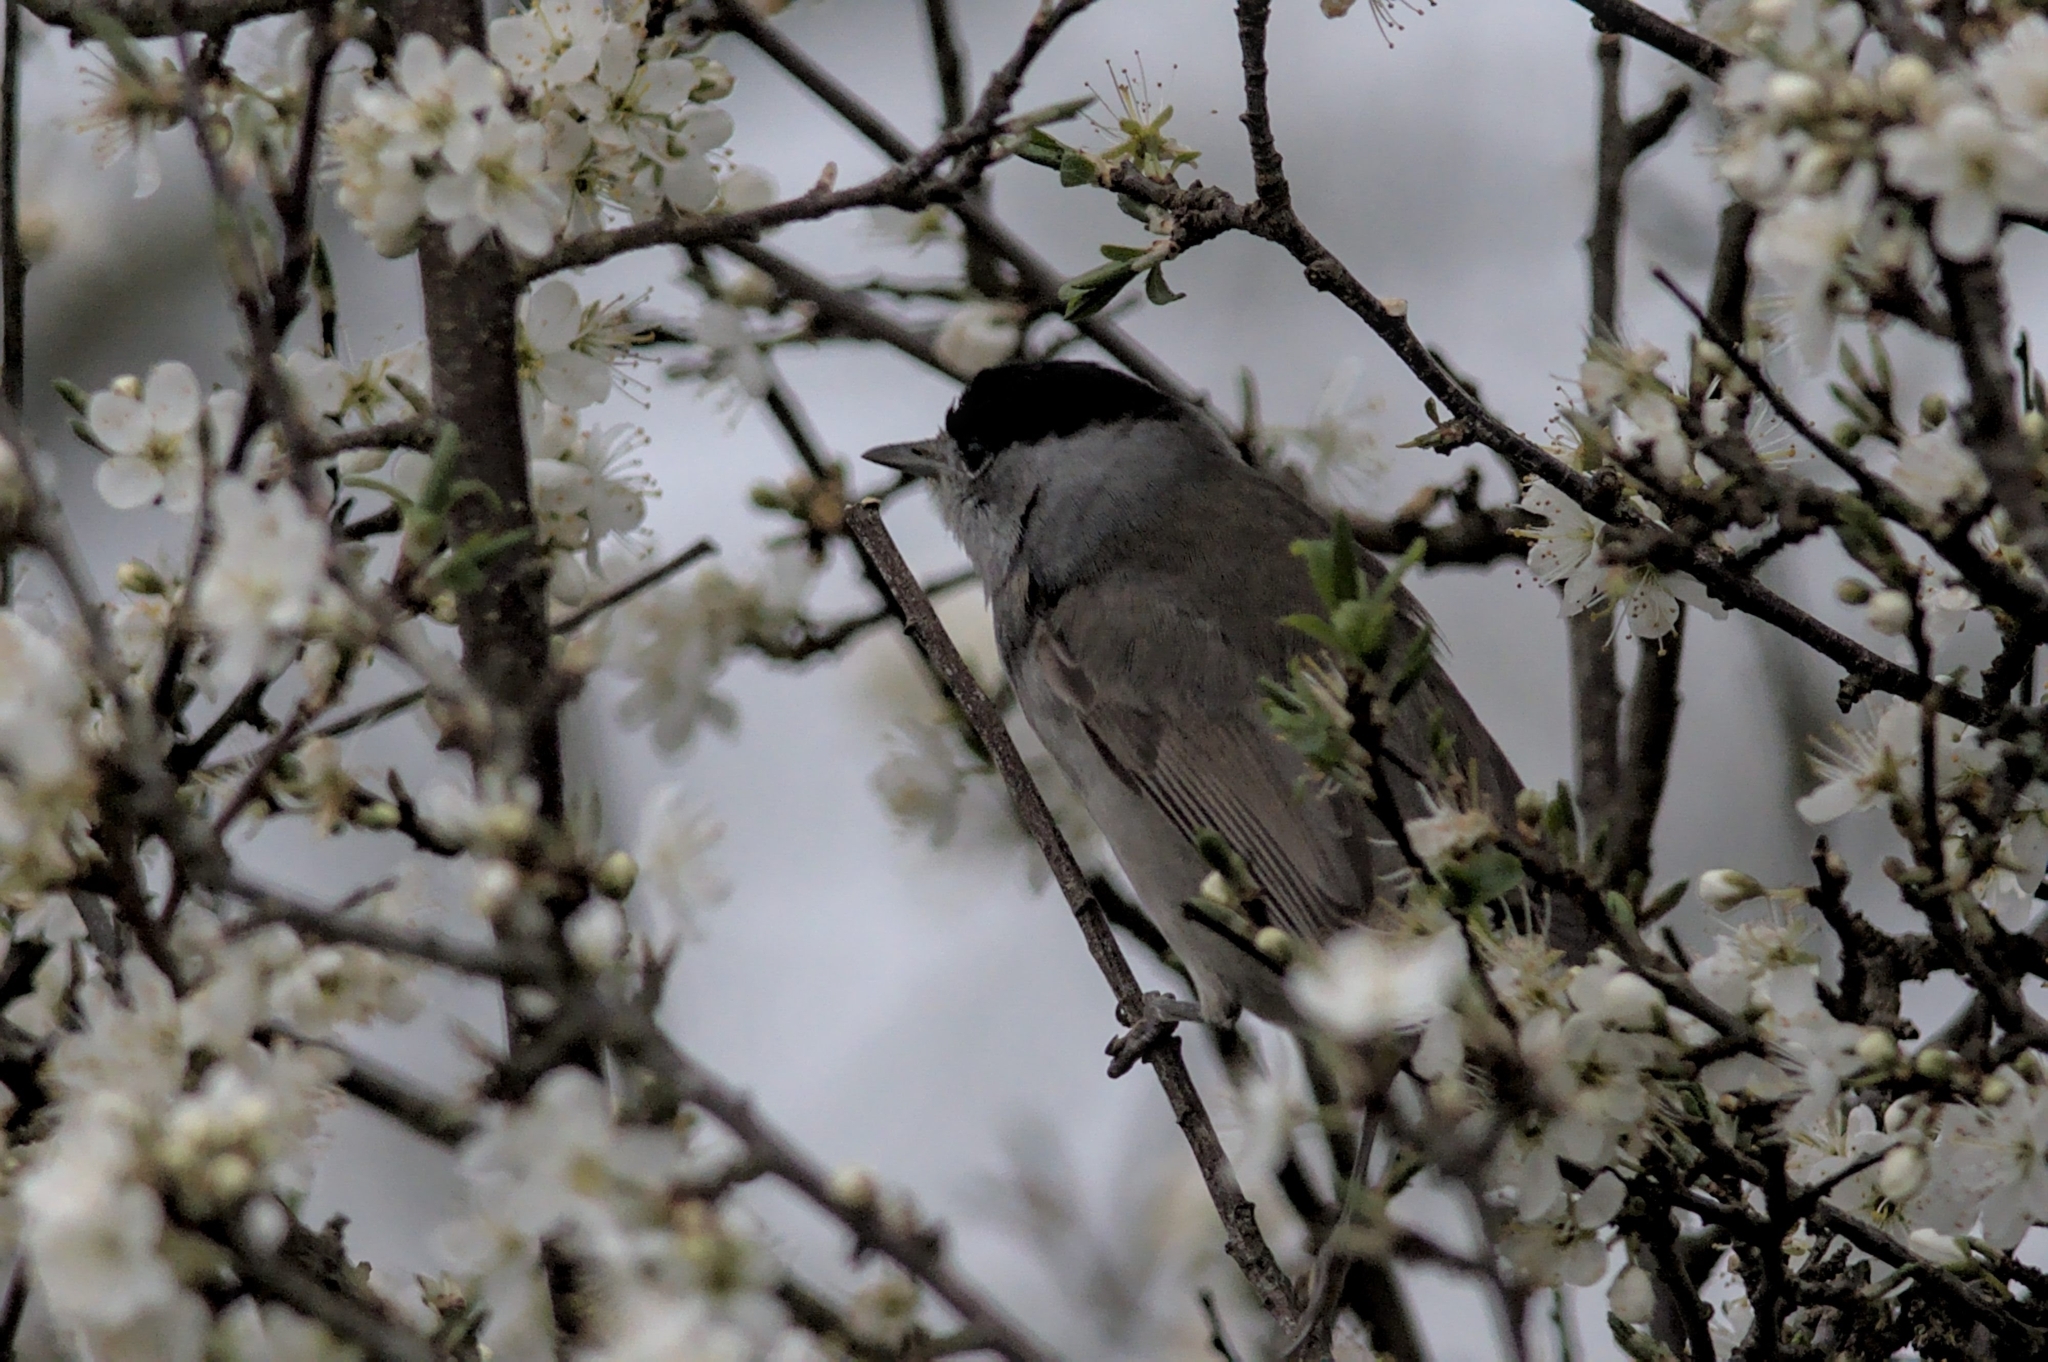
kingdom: Animalia
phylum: Chordata
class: Aves
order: Passeriformes
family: Sylviidae
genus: Sylvia
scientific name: Sylvia atricapilla
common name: Eurasian blackcap
